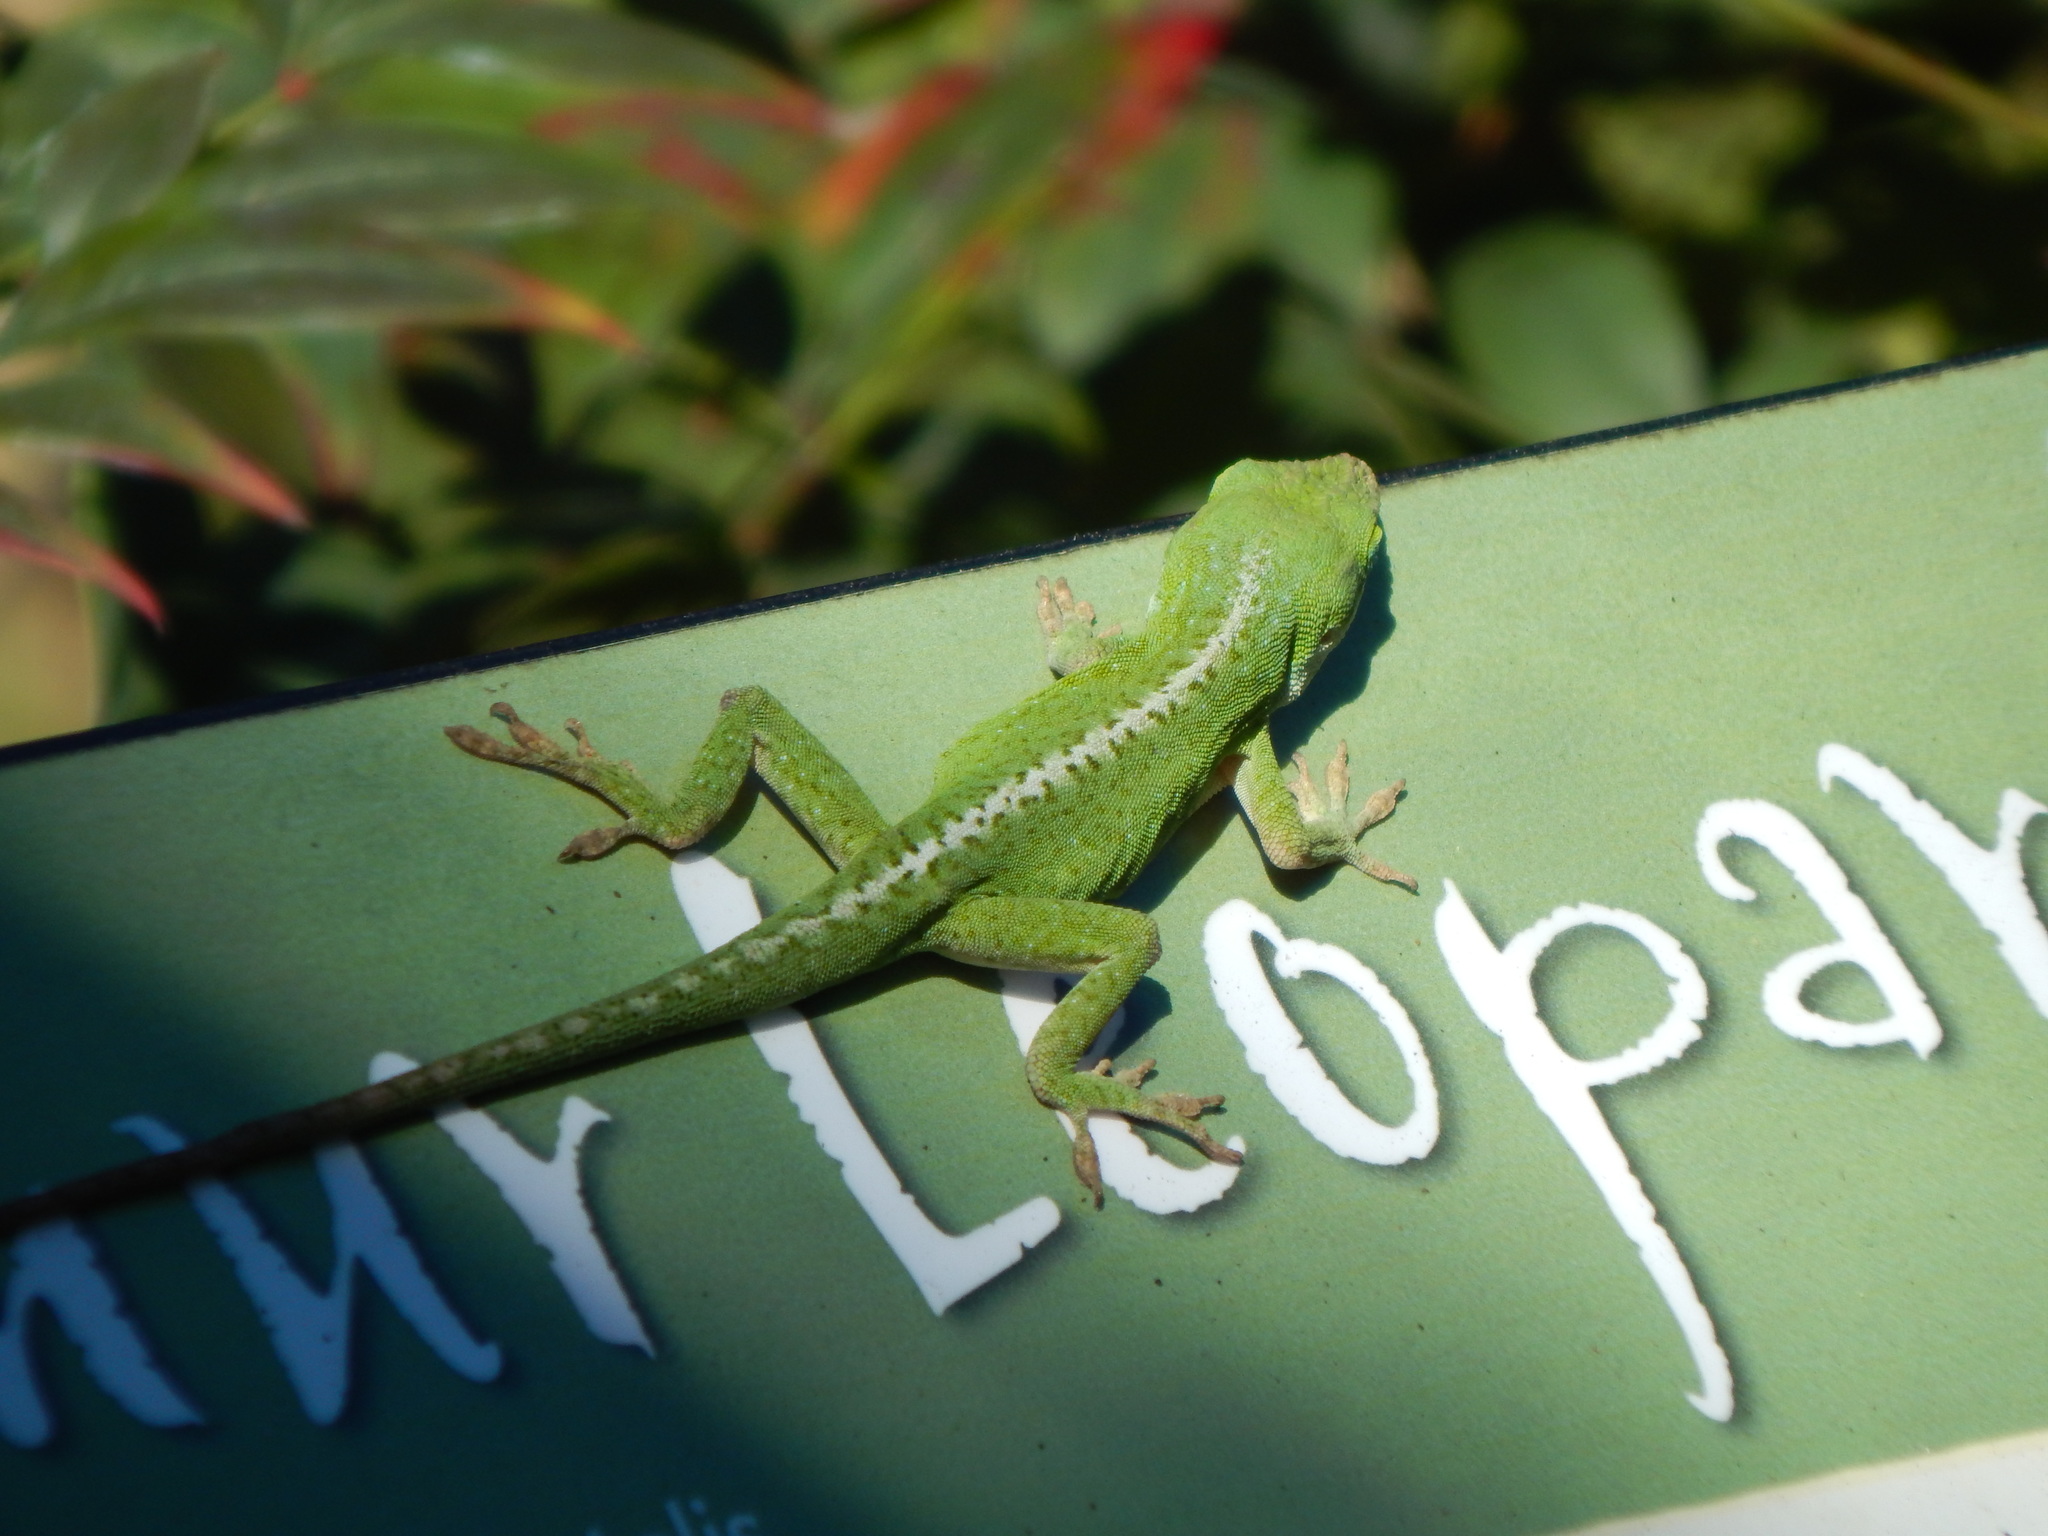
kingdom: Animalia
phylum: Chordata
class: Squamata
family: Dactyloidae
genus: Anolis
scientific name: Anolis carolinensis
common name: Green anole
